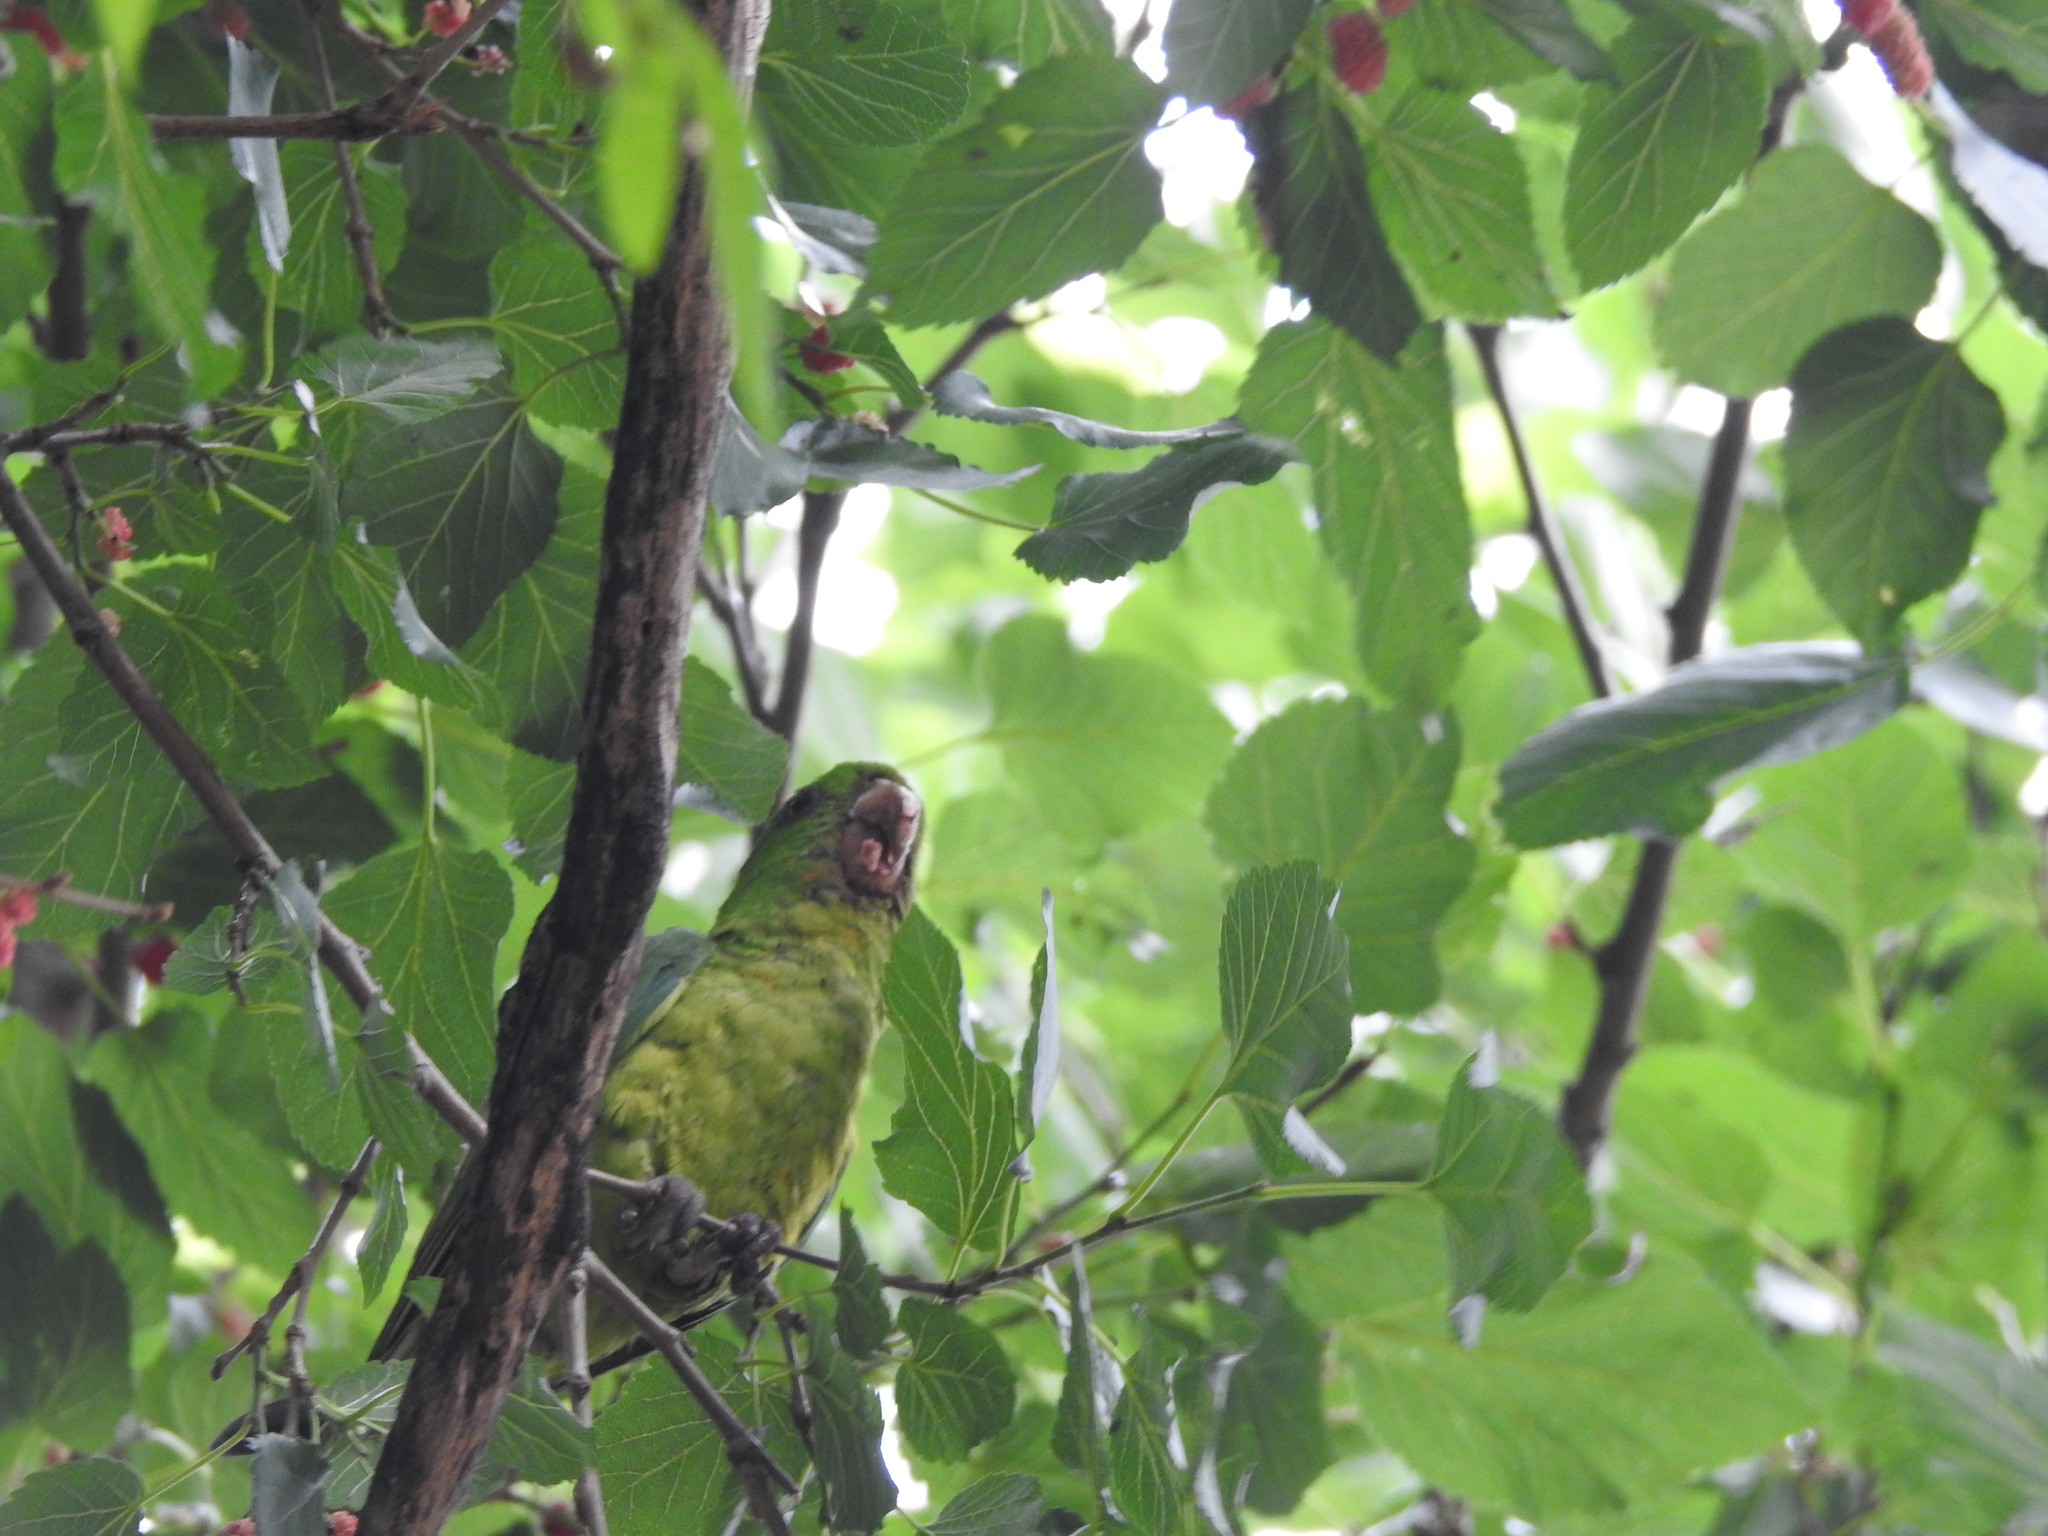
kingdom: Animalia
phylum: Chordata
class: Aves
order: Psittaciformes
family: Psittacidae
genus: Aratinga
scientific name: Aratinga holochlora
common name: Green parakeet
